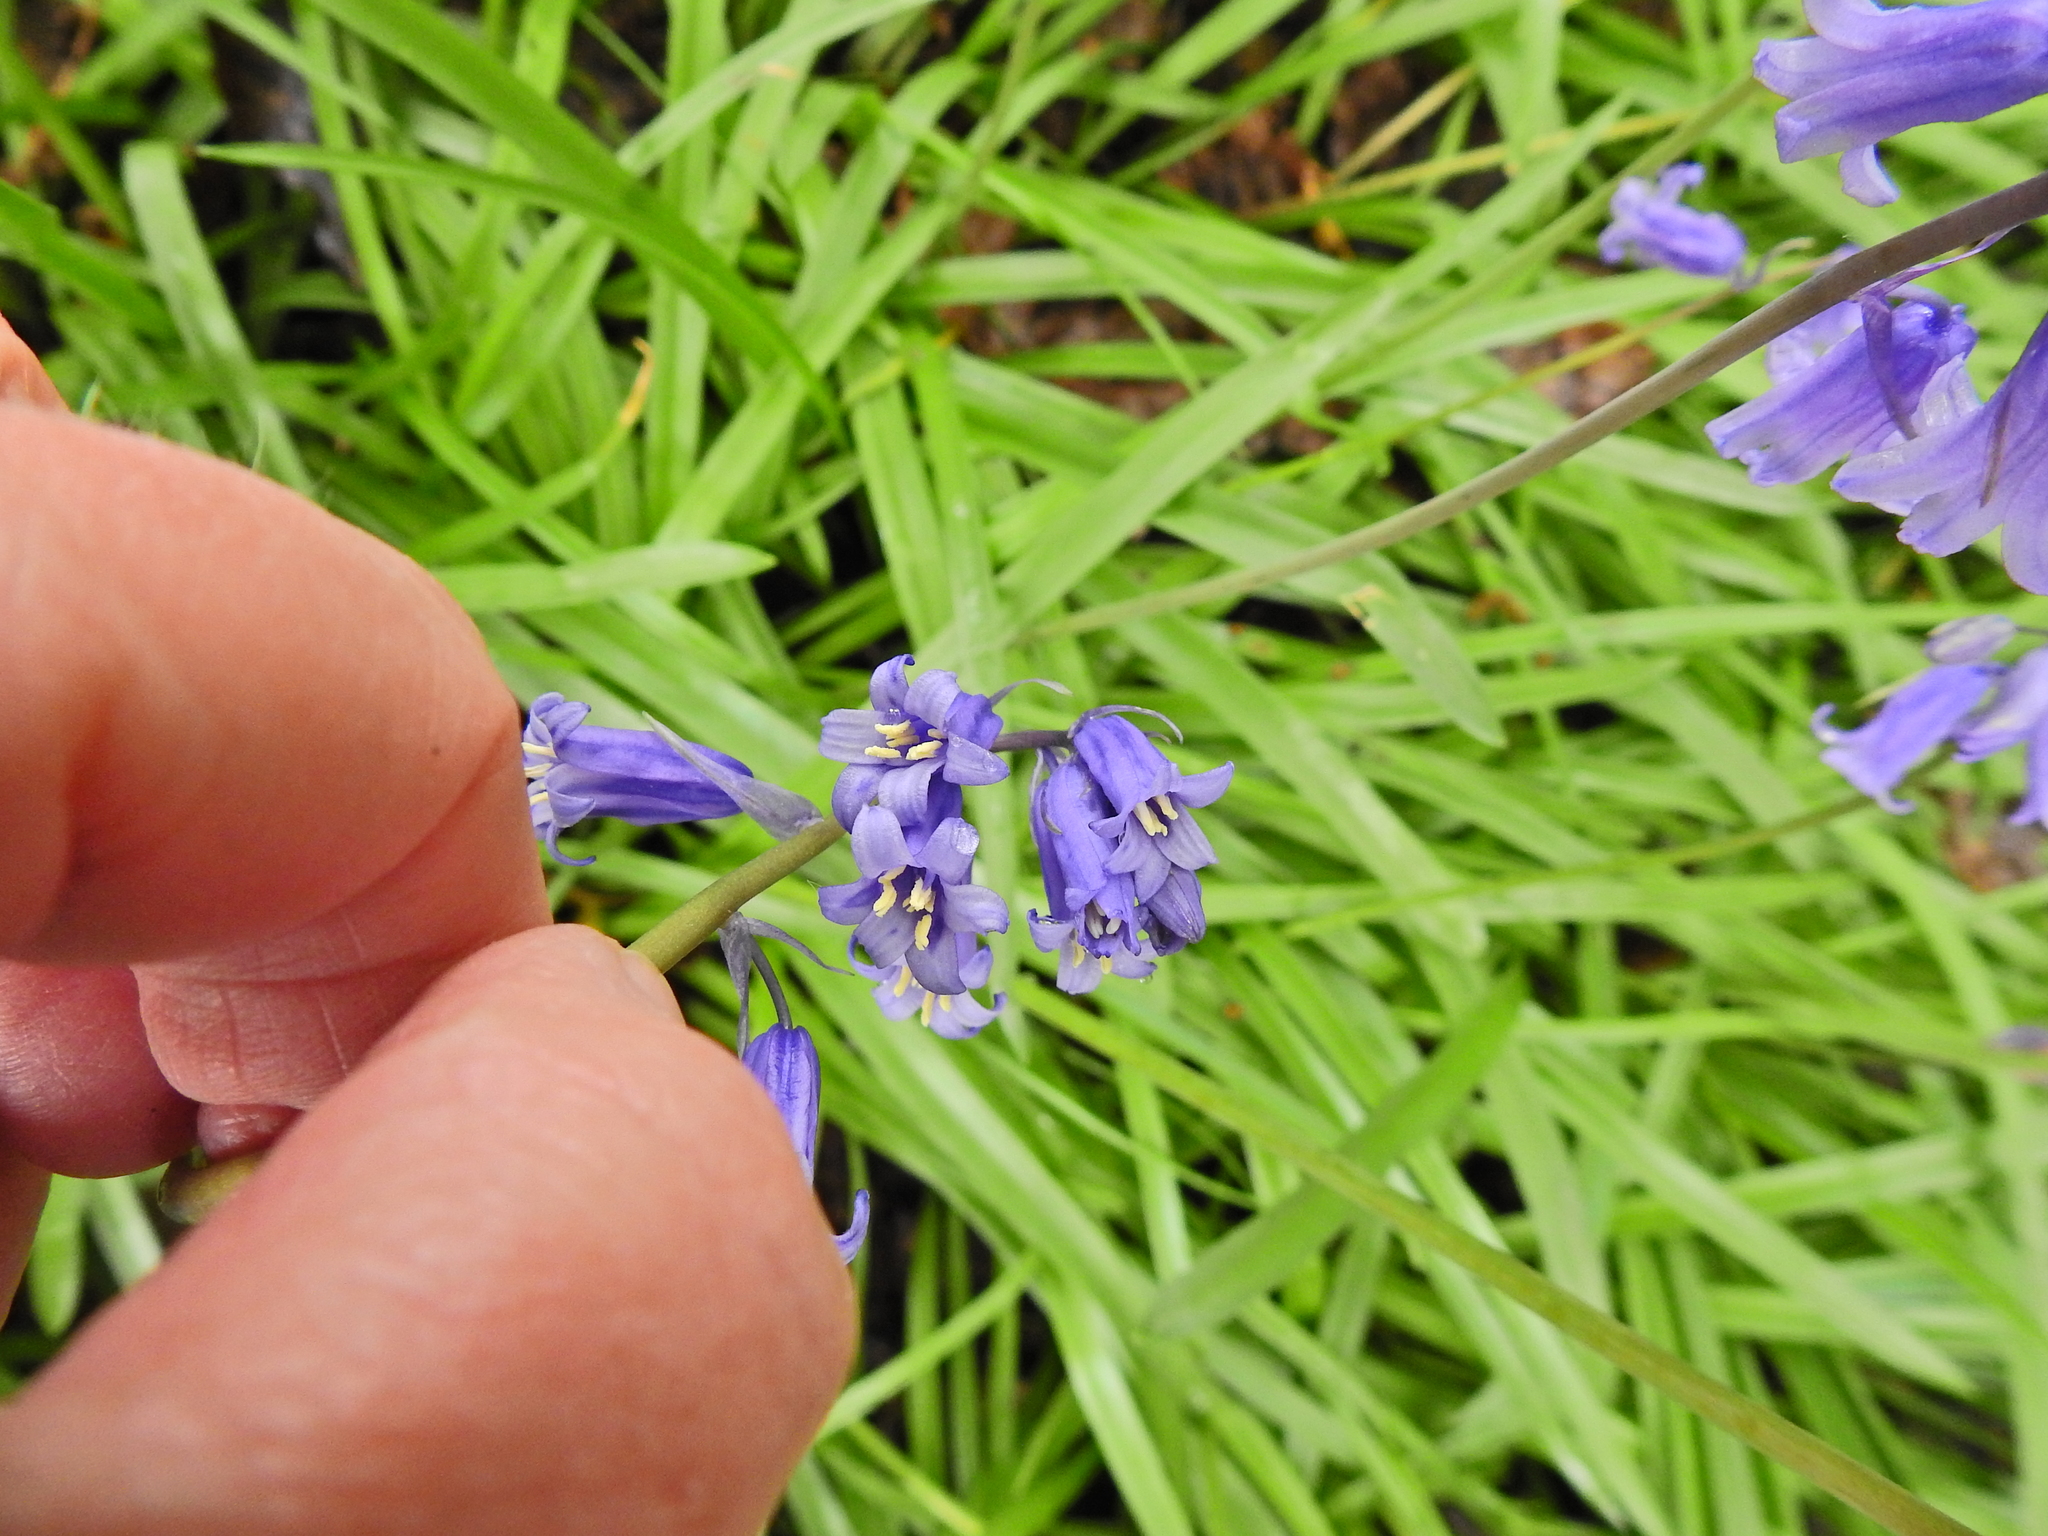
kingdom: Plantae
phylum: Tracheophyta
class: Liliopsida
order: Asparagales
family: Asparagaceae
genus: Hyacinthoides
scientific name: Hyacinthoides non-scripta
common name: Bluebell
